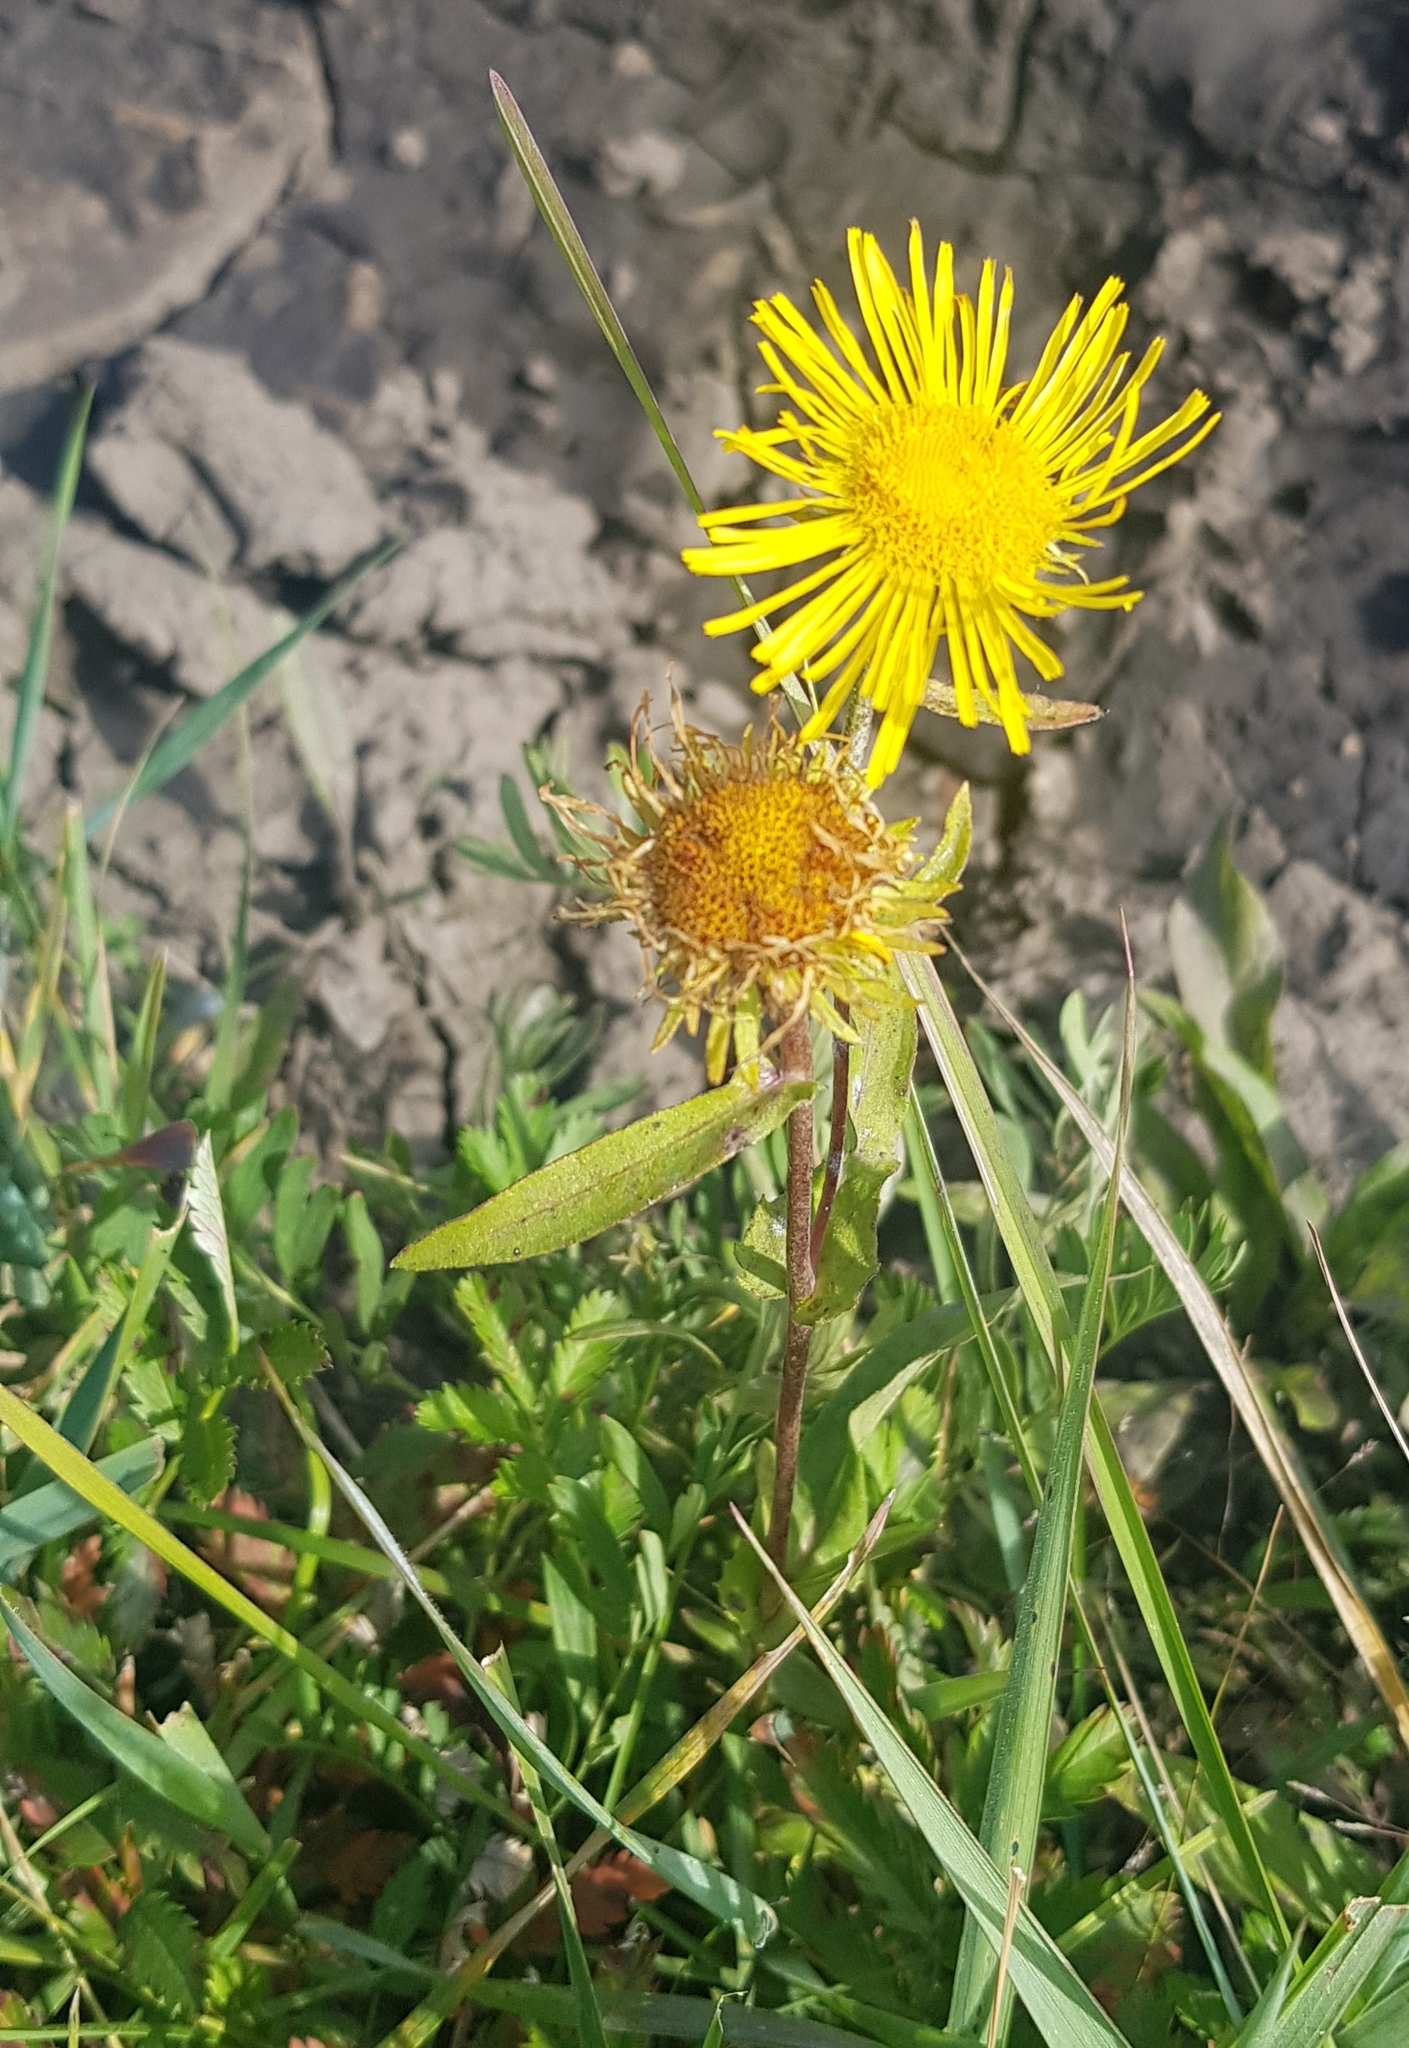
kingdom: Plantae
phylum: Tracheophyta
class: Magnoliopsida
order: Asterales
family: Asteraceae
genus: Pentanema
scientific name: Pentanema britannicum
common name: British elecampane
